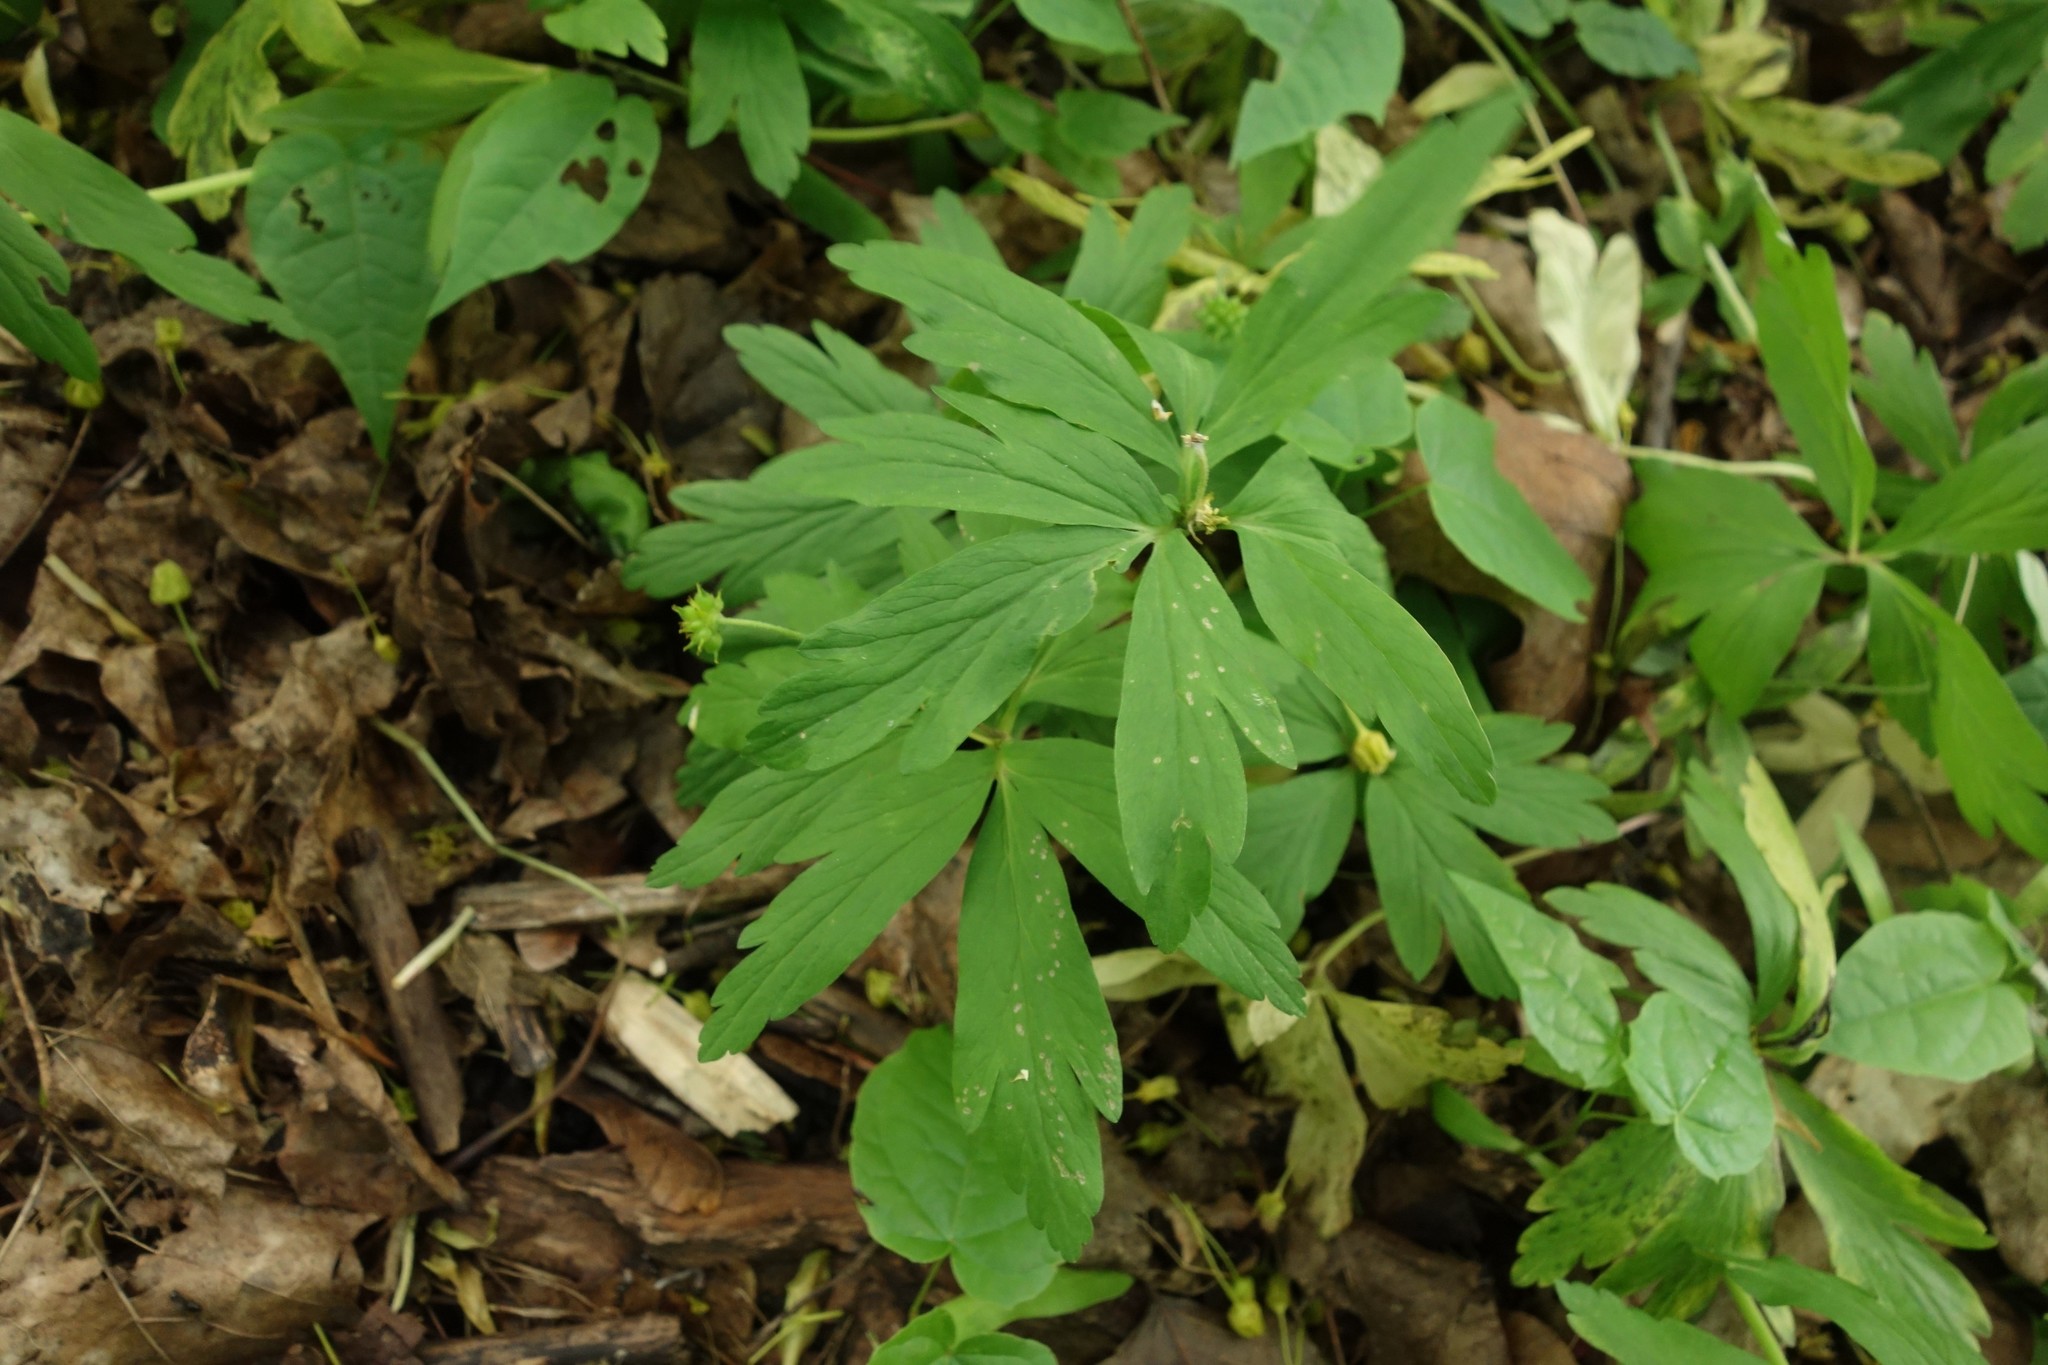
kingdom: Plantae
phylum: Tracheophyta
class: Magnoliopsida
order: Ranunculales
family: Ranunculaceae
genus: Anemone
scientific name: Anemone ranunculoides
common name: Yellow anemone
